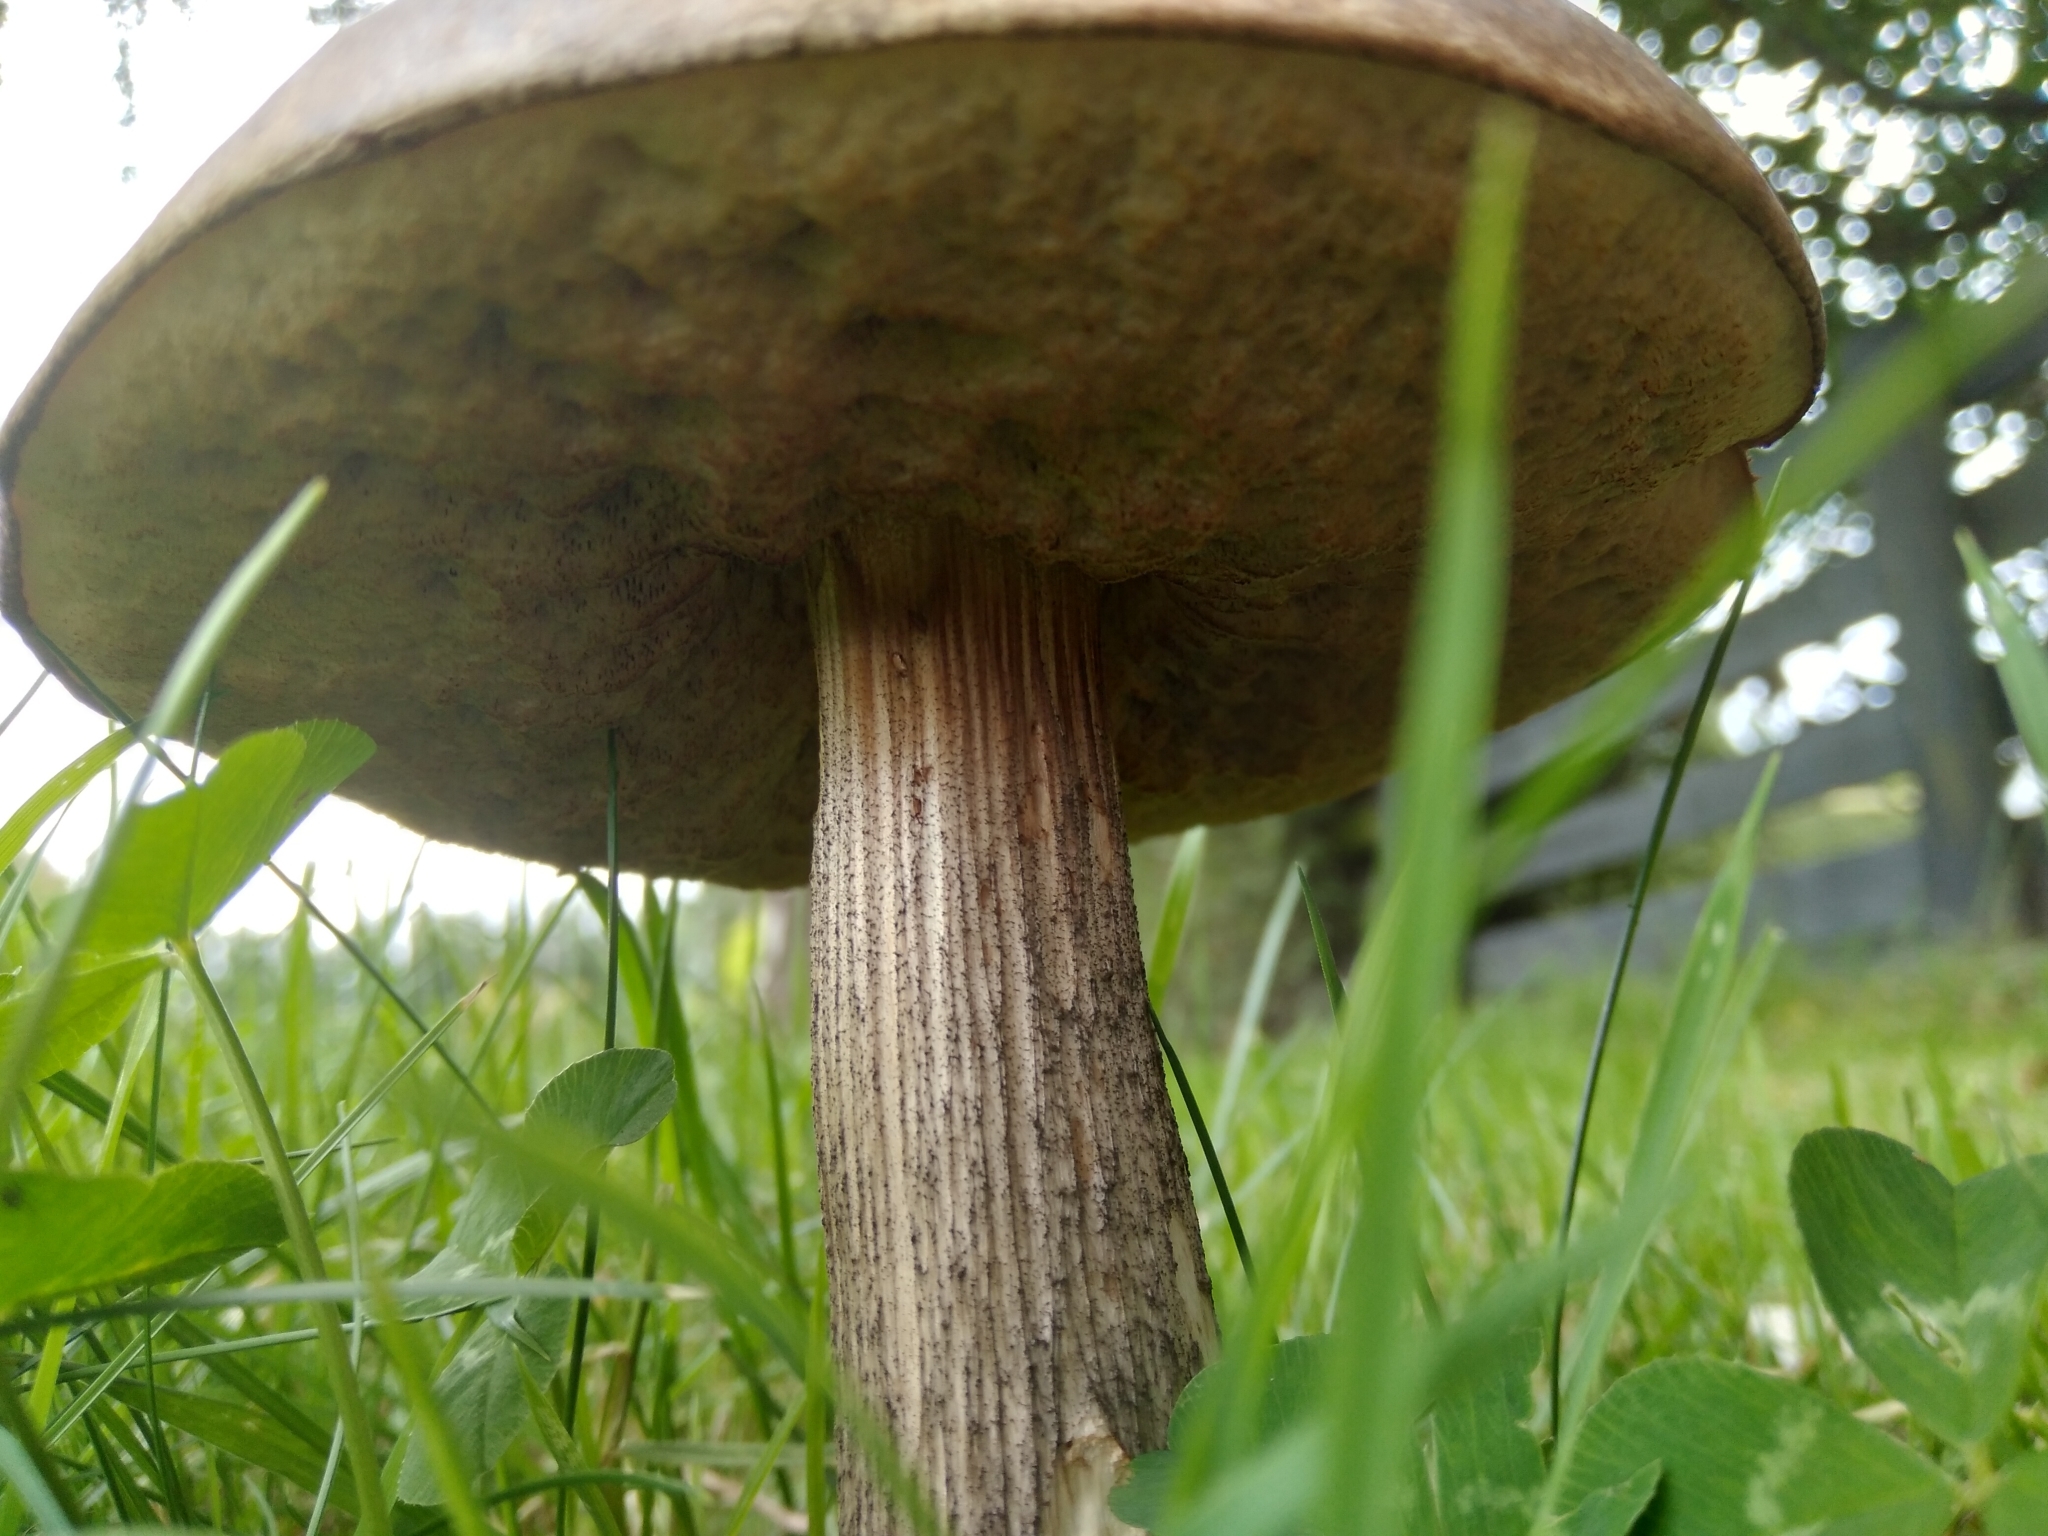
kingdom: Fungi
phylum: Basidiomycota
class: Agaricomycetes
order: Boletales
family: Boletaceae
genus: Leccinum
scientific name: Leccinum scabrum
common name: Blushing bolete
